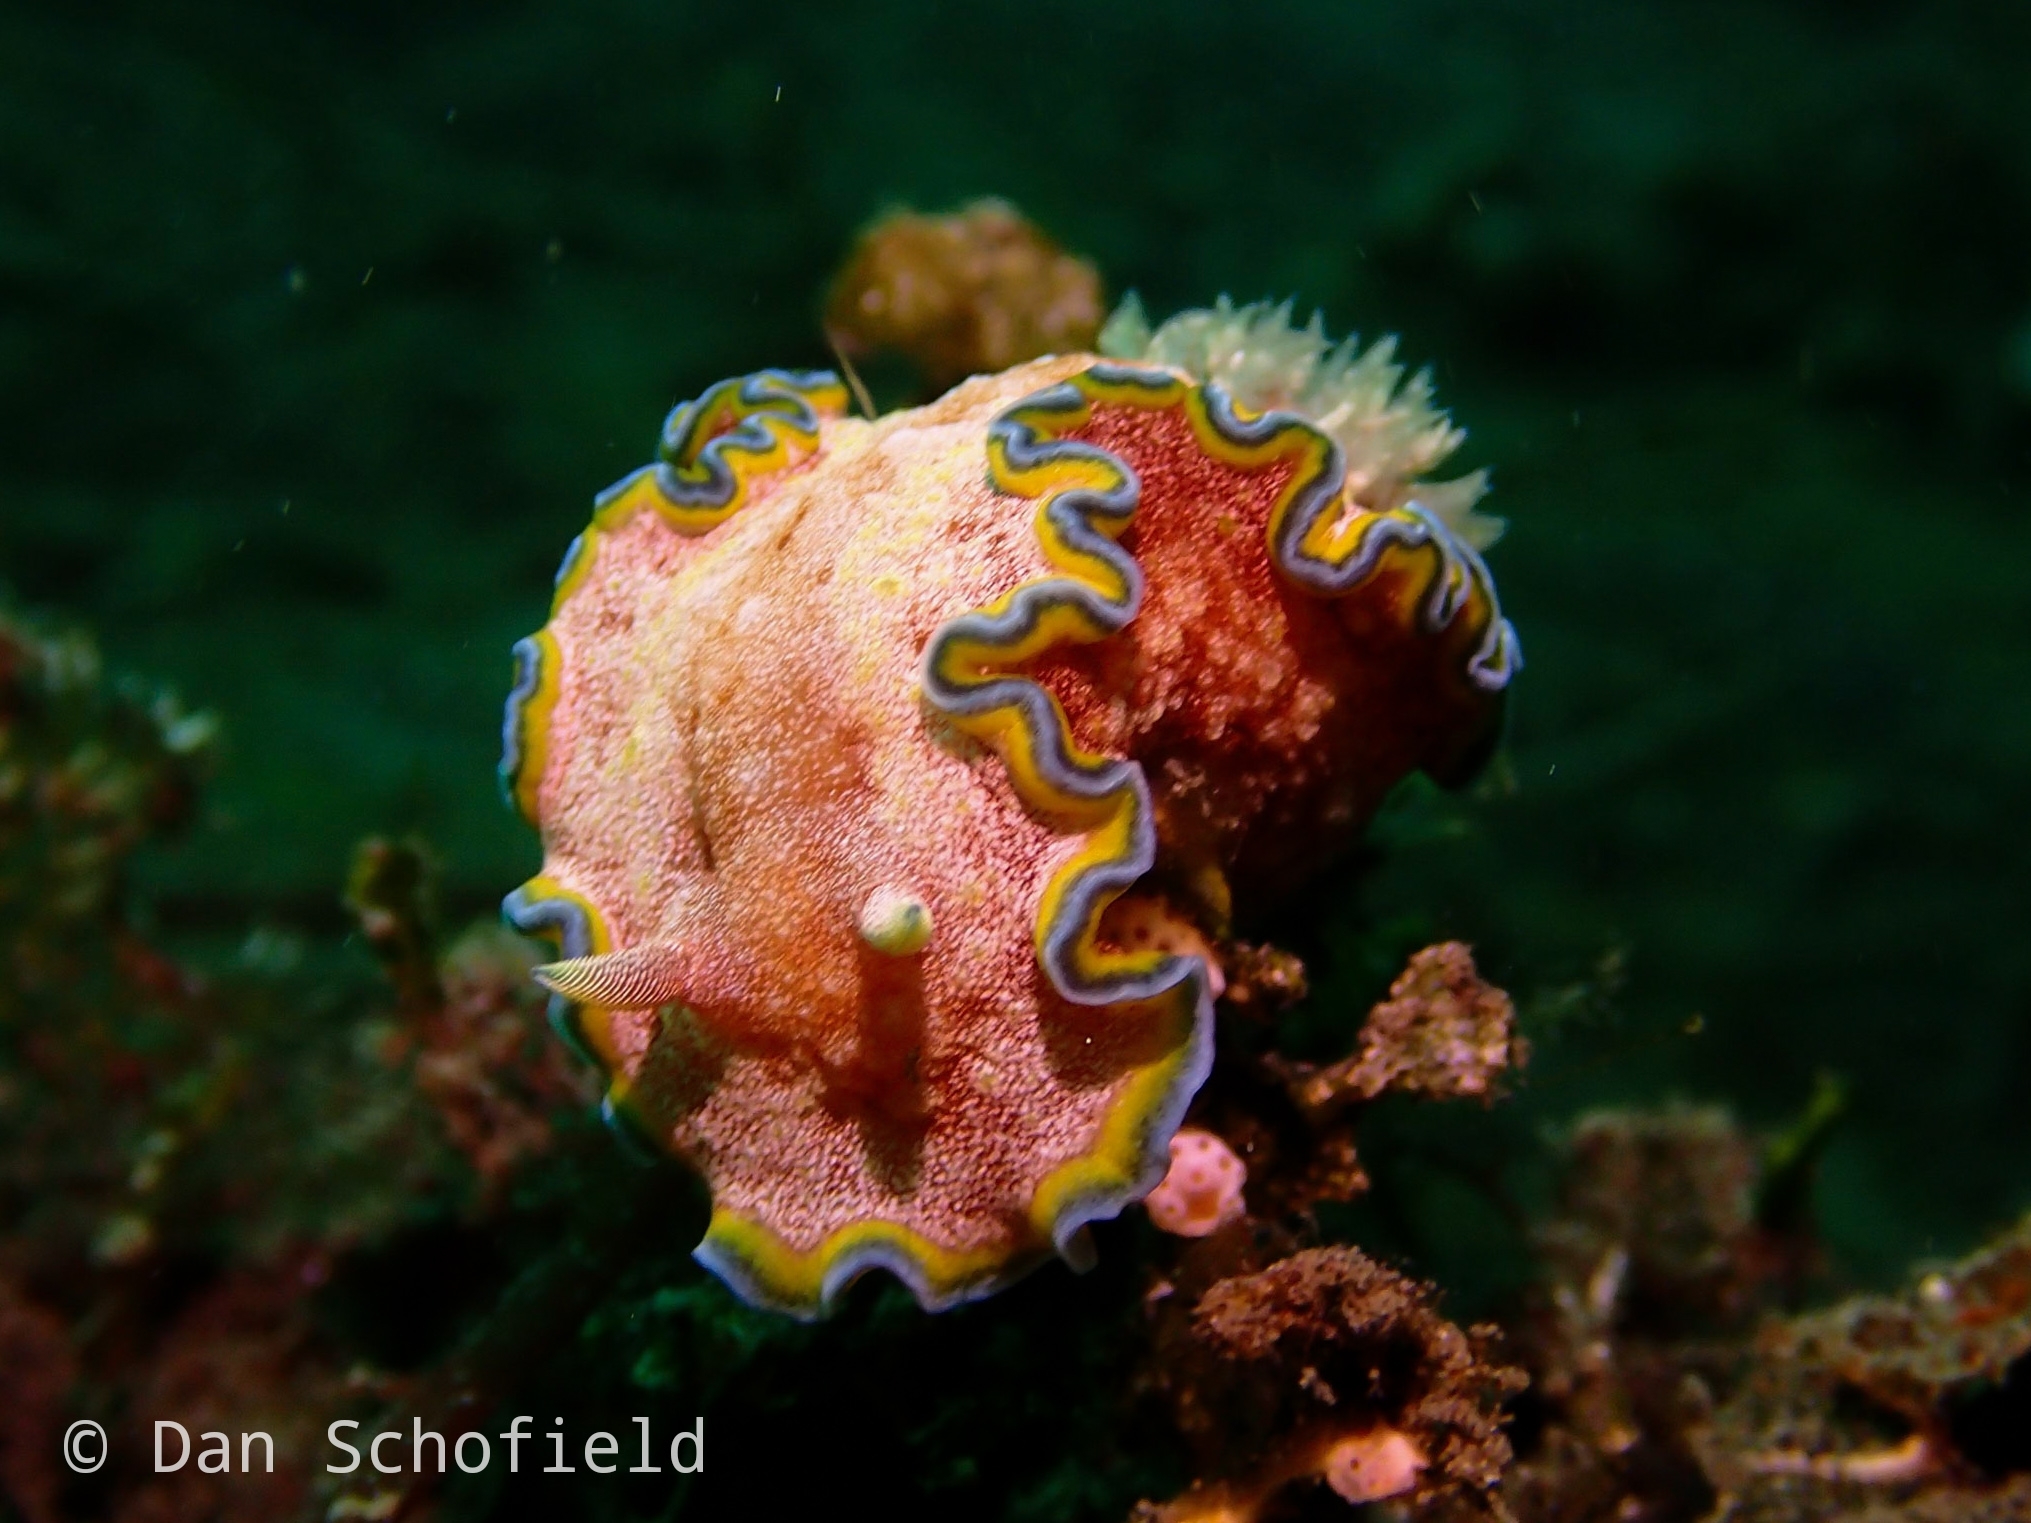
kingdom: Animalia
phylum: Mollusca
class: Gastropoda
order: Nudibranchia
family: Chromodorididae
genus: Glossodoris
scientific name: Glossodoris acosti
